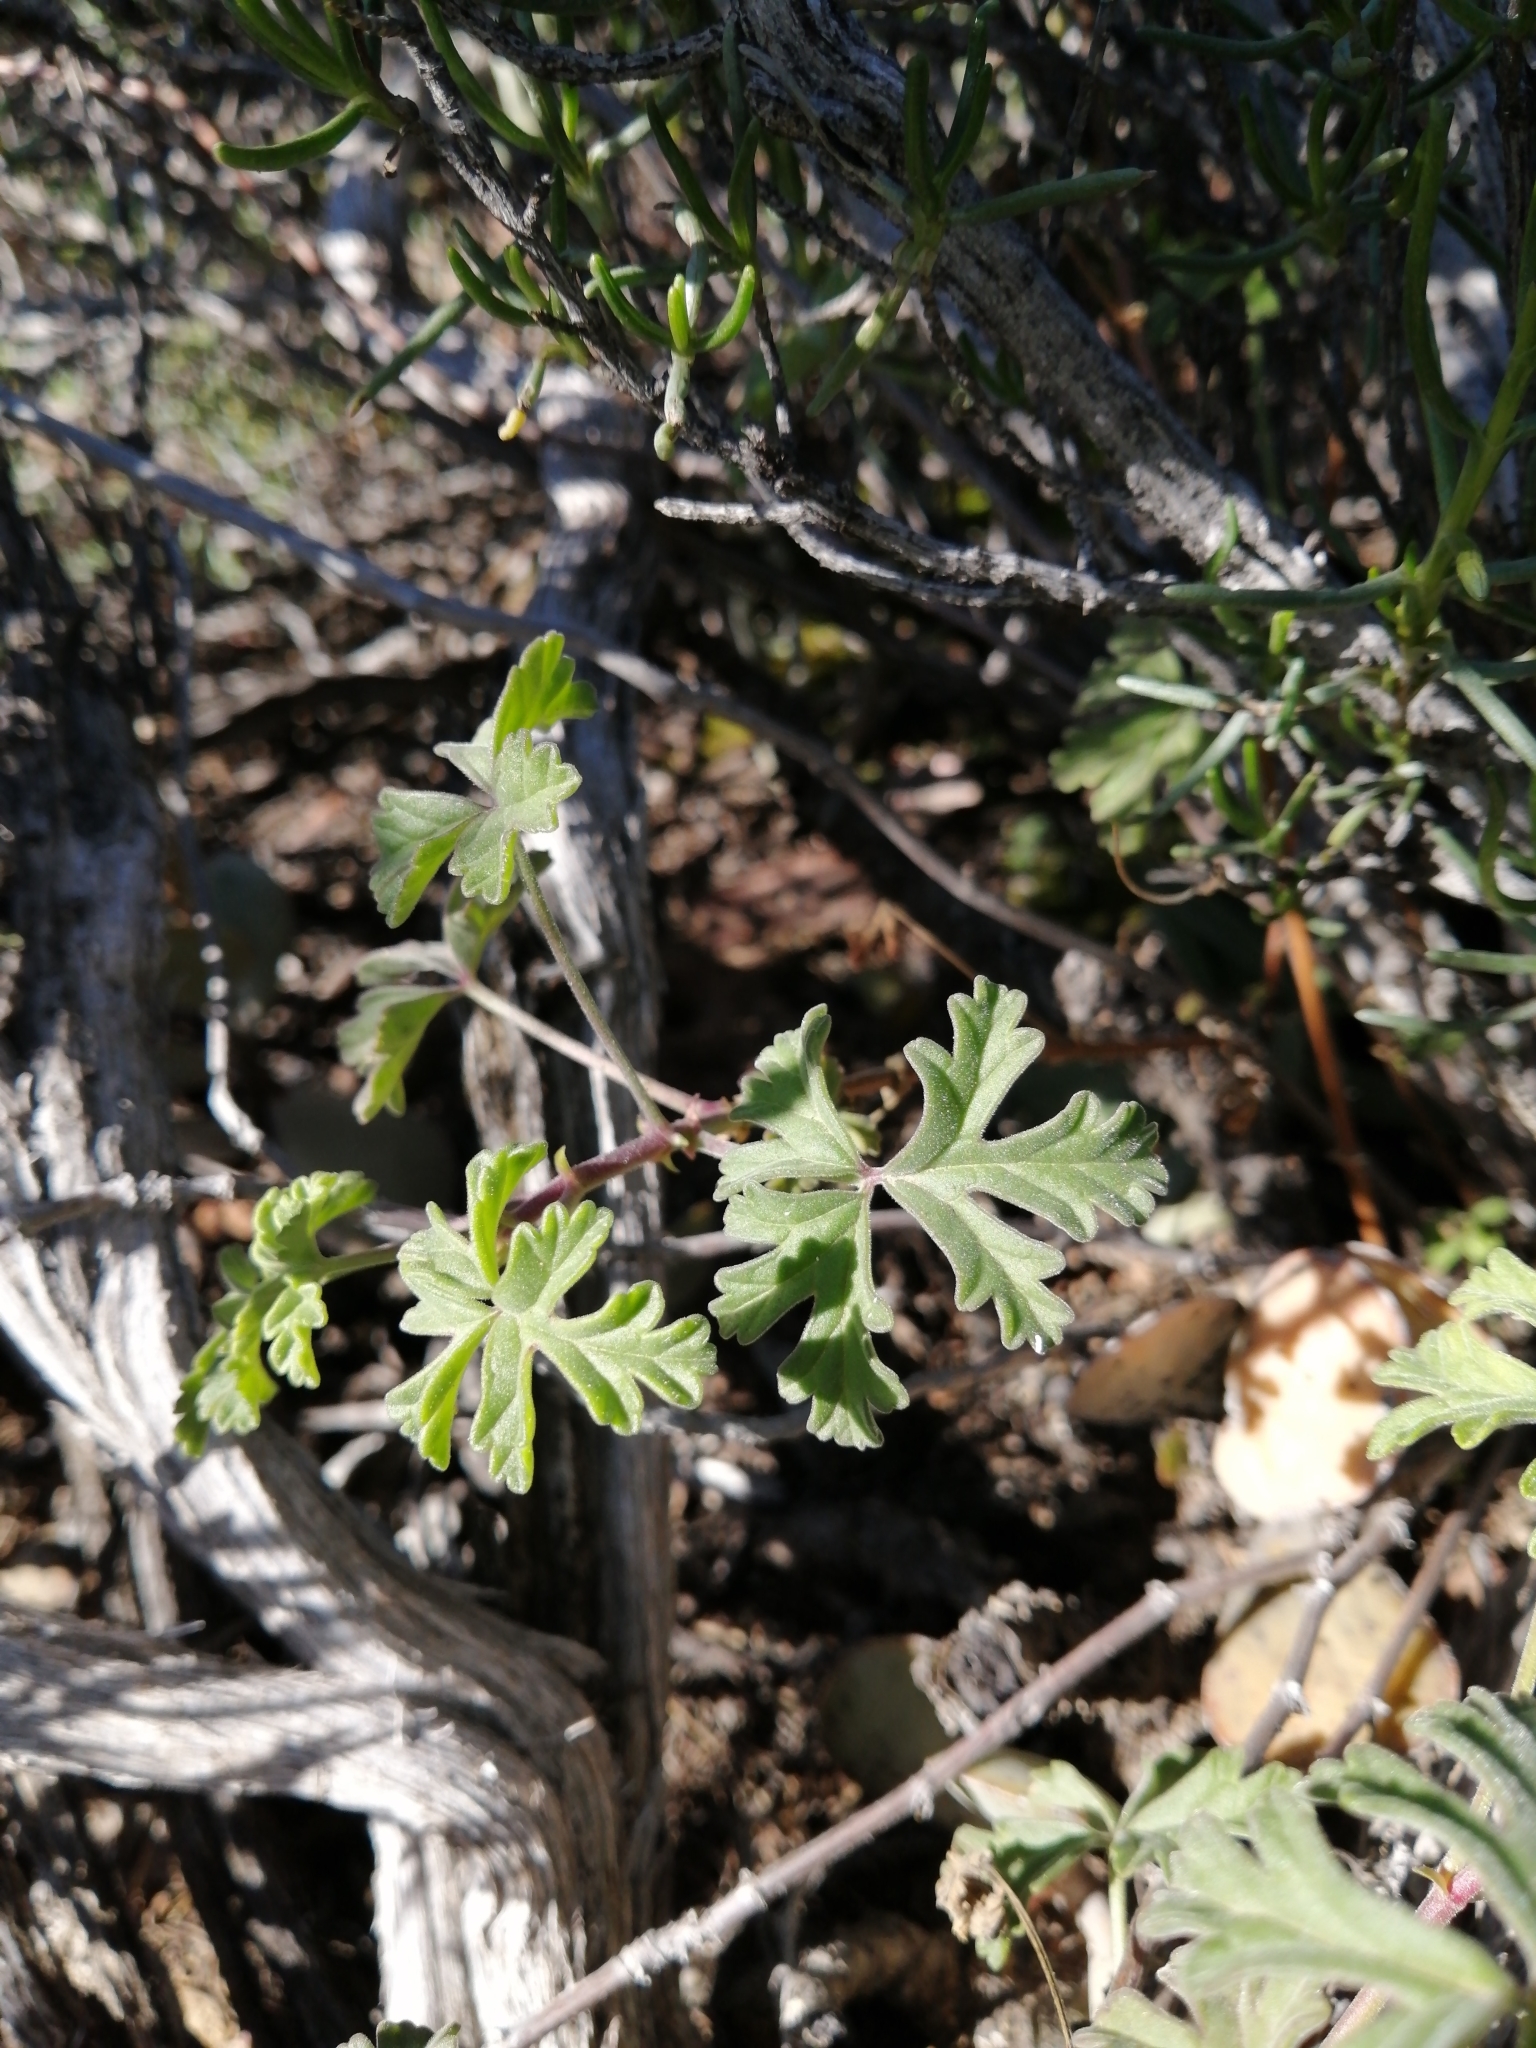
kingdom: Plantae
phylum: Tracheophyta
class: Magnoliopsida
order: Geraniales
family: Geraniaceae
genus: Pelargonium
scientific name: Pelargonium trifidum
